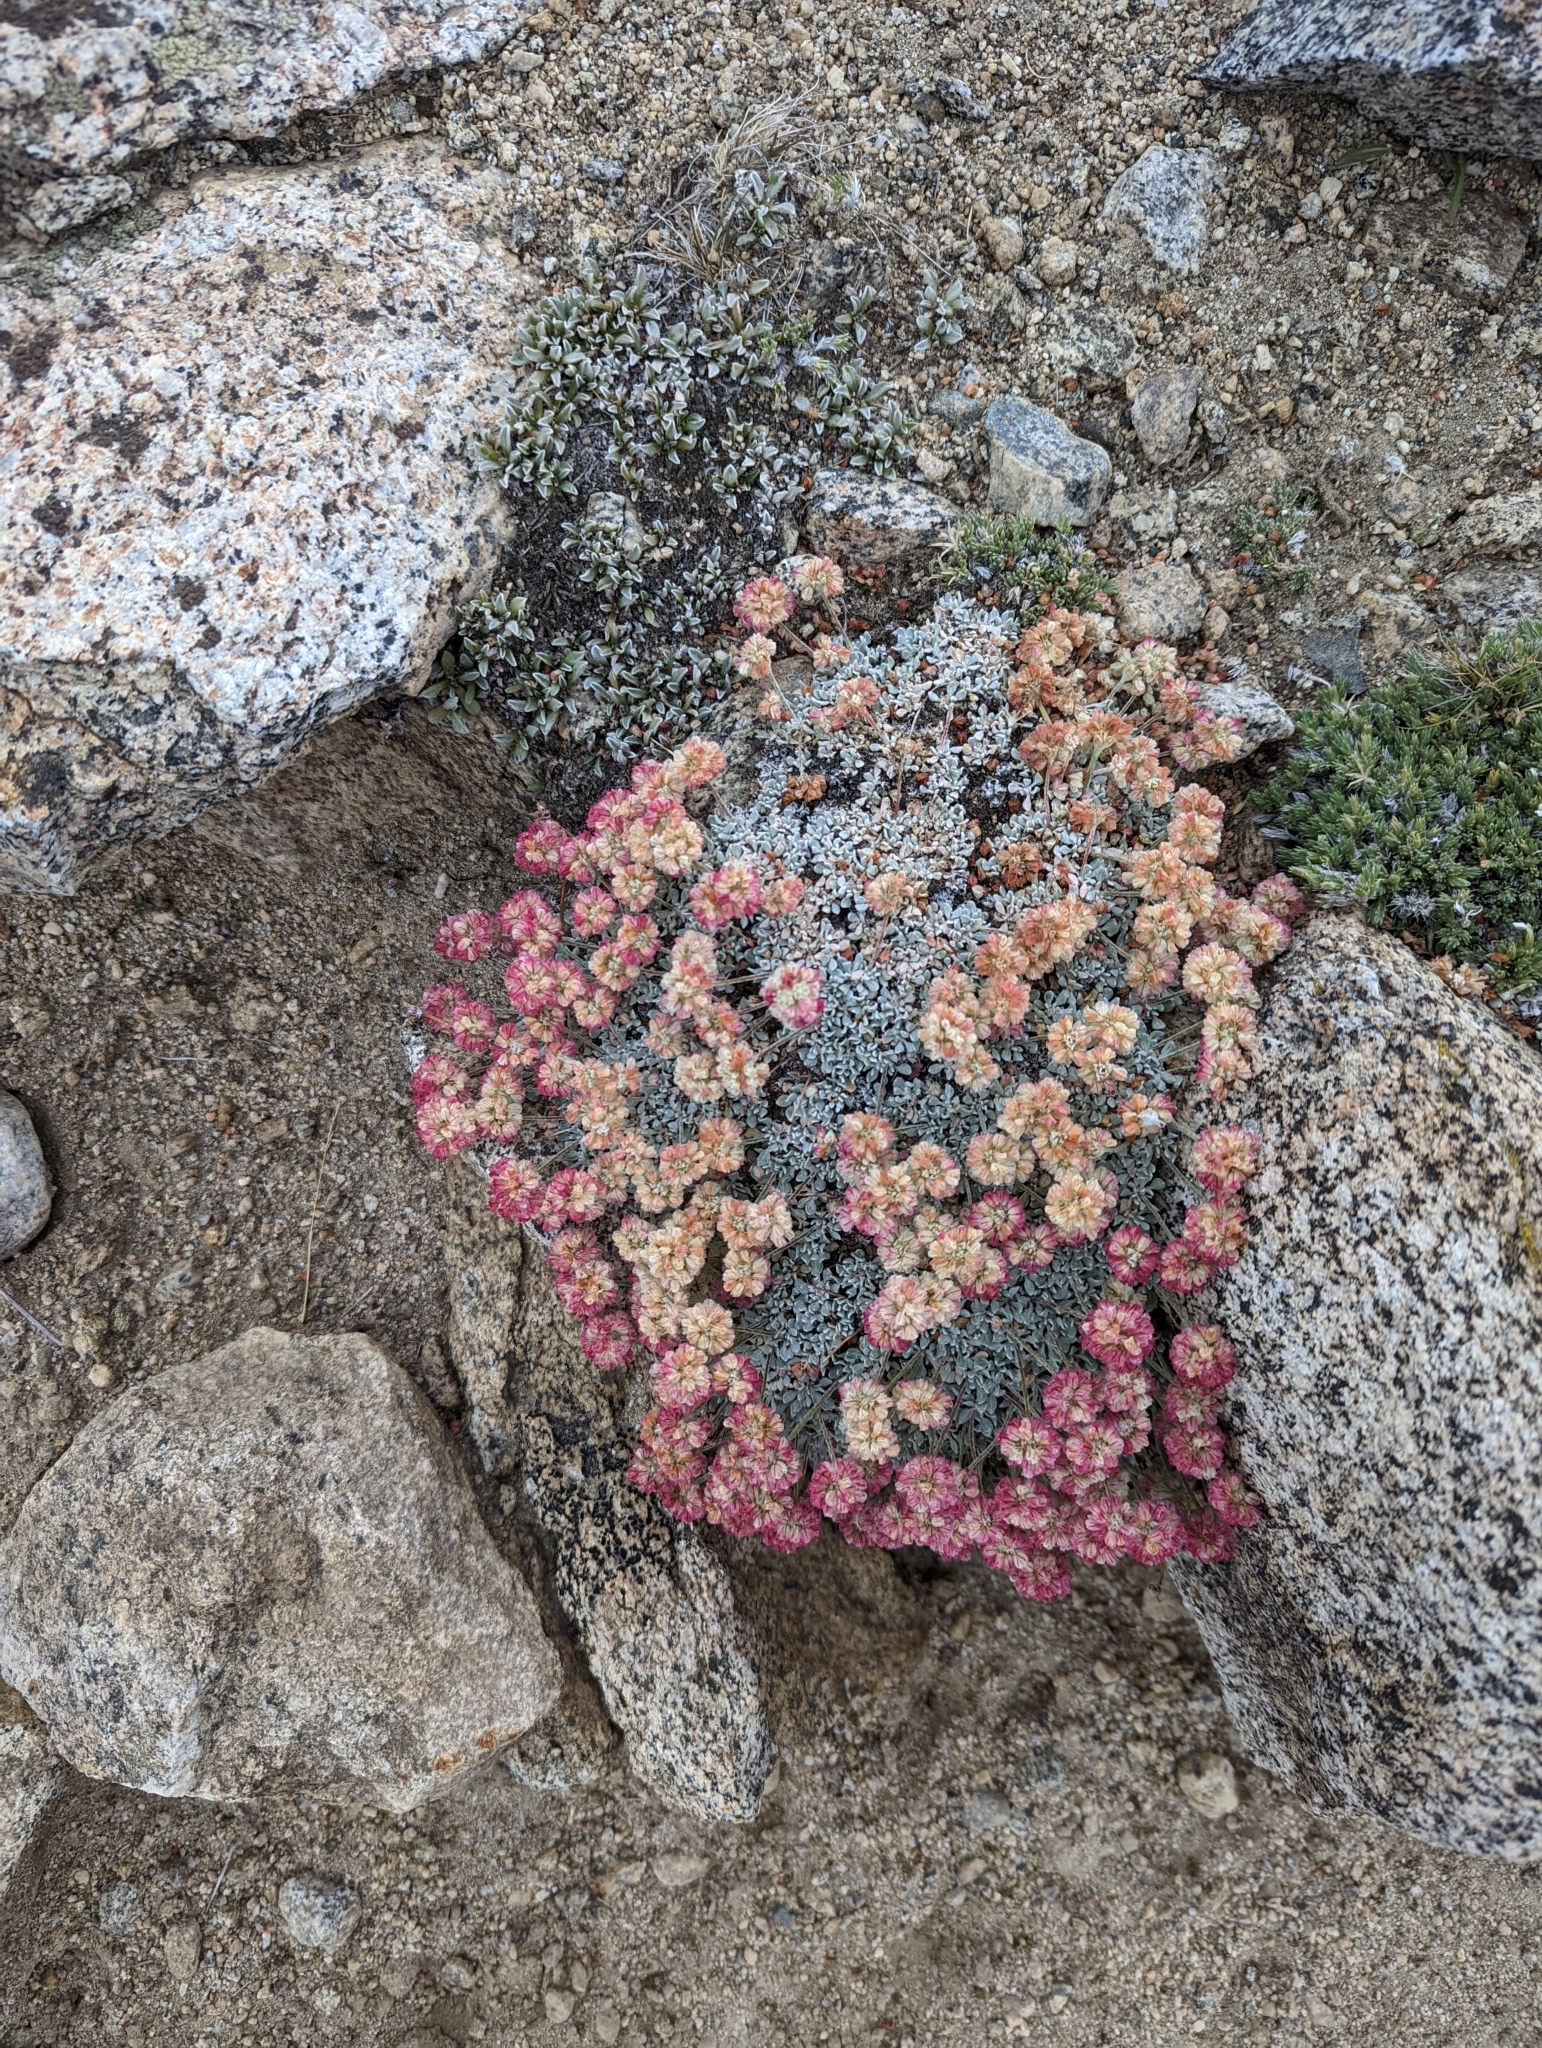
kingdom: Plantae
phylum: Tracheophyta
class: Magnoliopsida
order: Caryophyllales
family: Polygonaceae
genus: Eriogonum
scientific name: Eriogonum ovalifolium
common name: Cushion buckwheat
